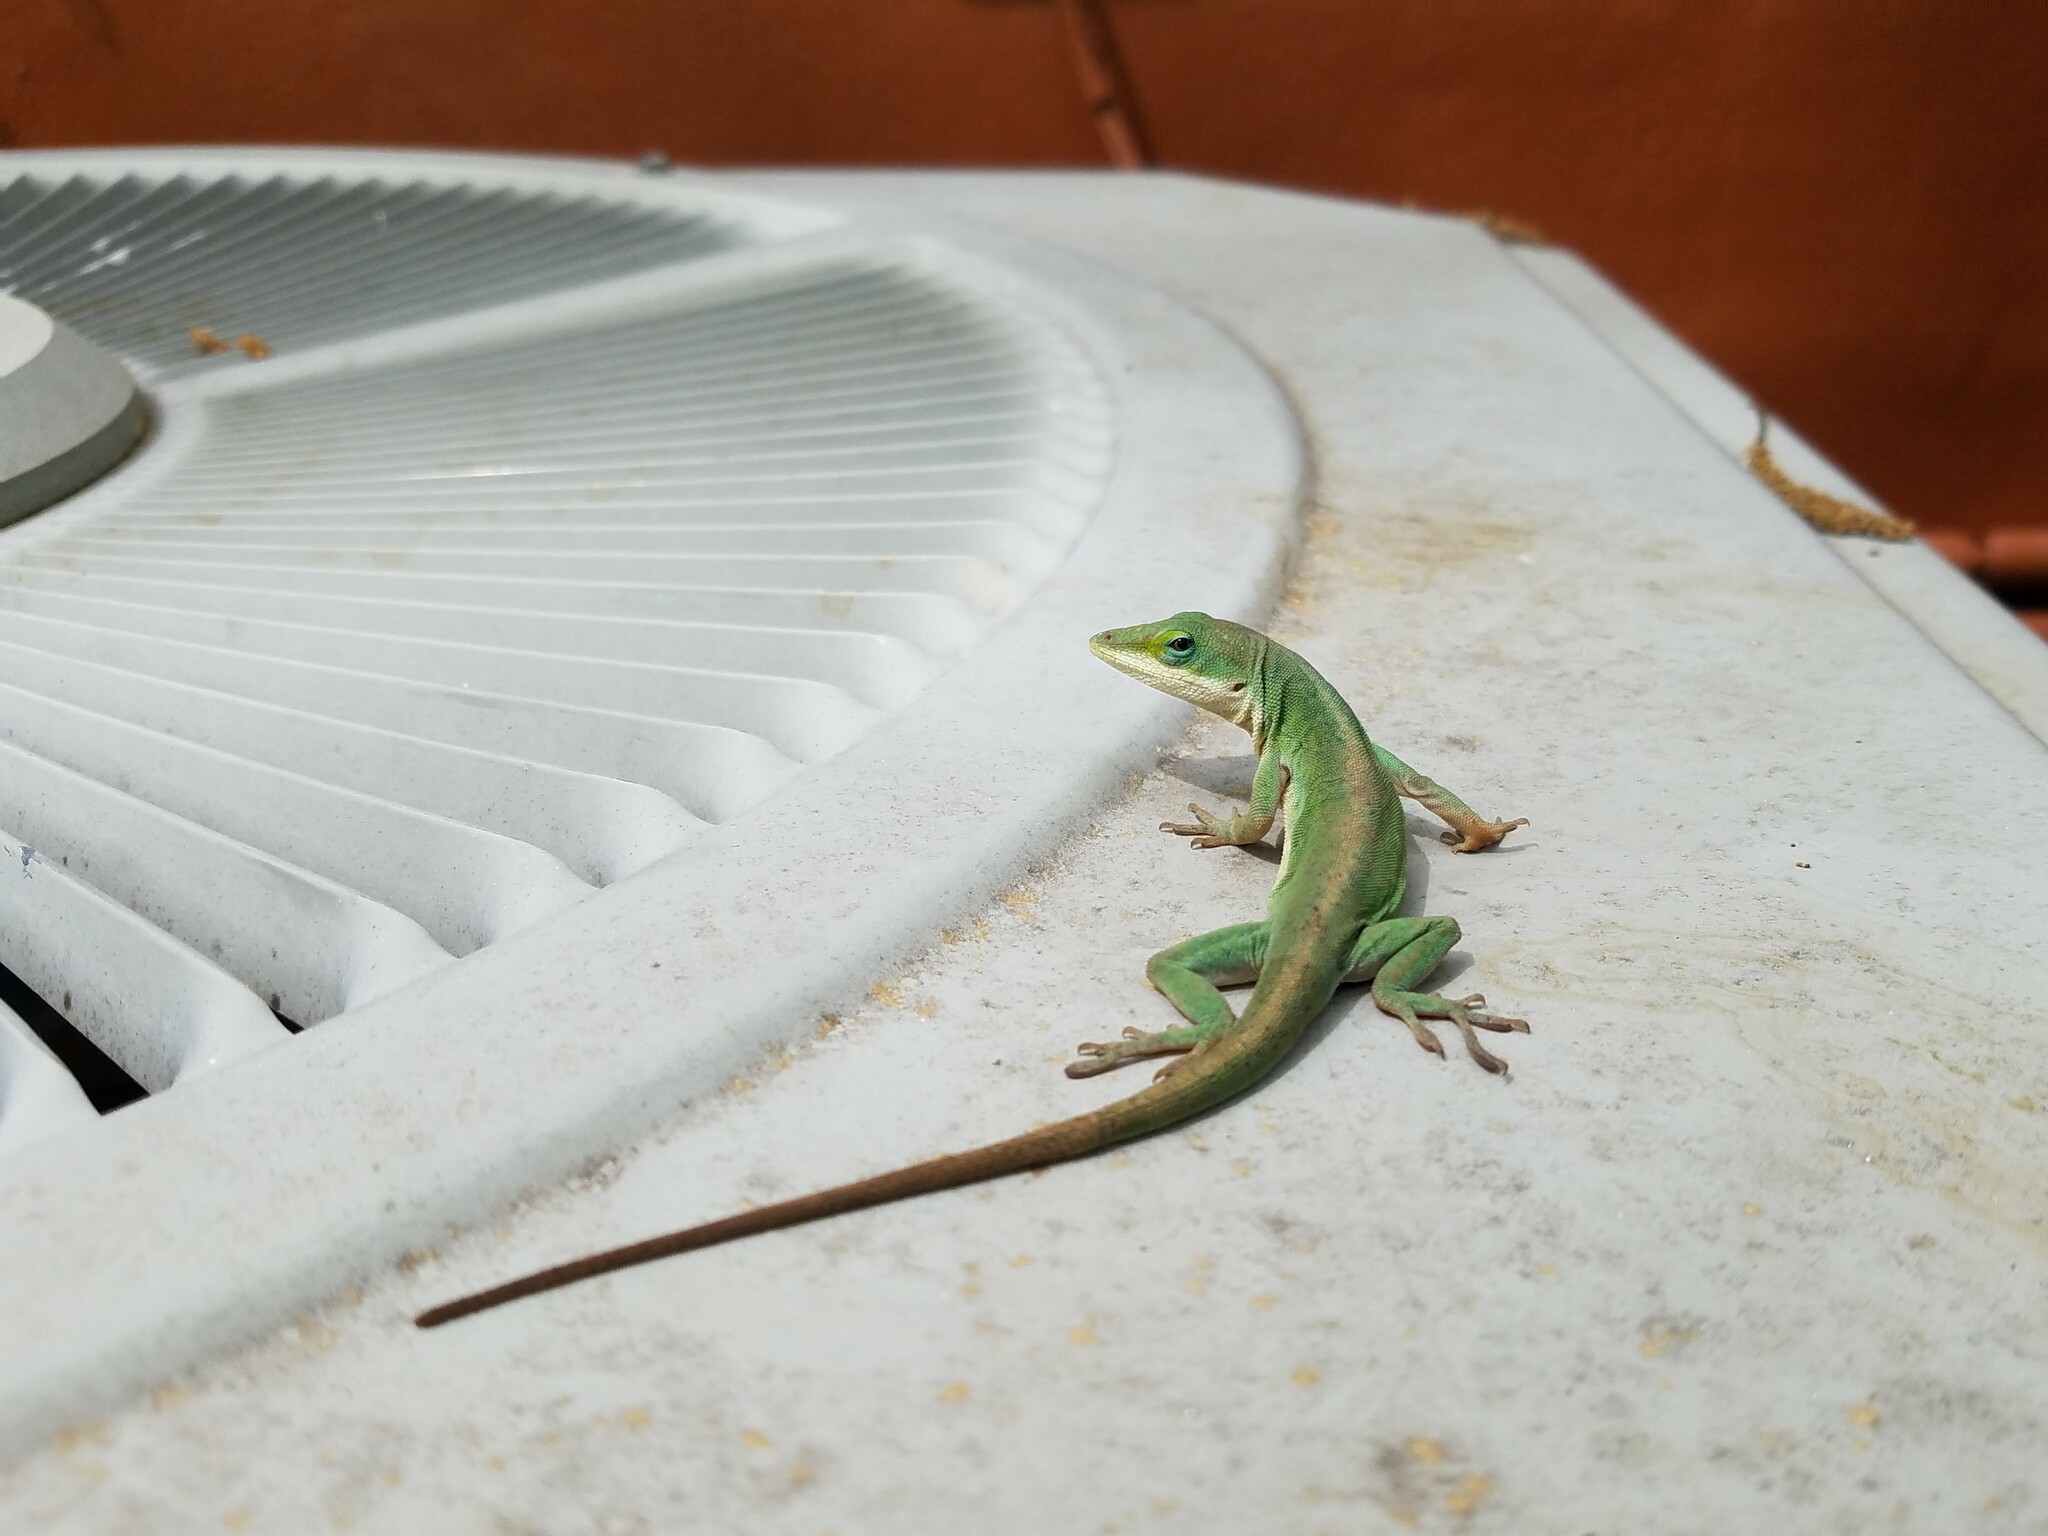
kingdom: Animalia
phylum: Chordata
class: Squamata
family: Dactyloidae
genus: Anolis
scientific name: Anolis carolinensis
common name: Green anole
